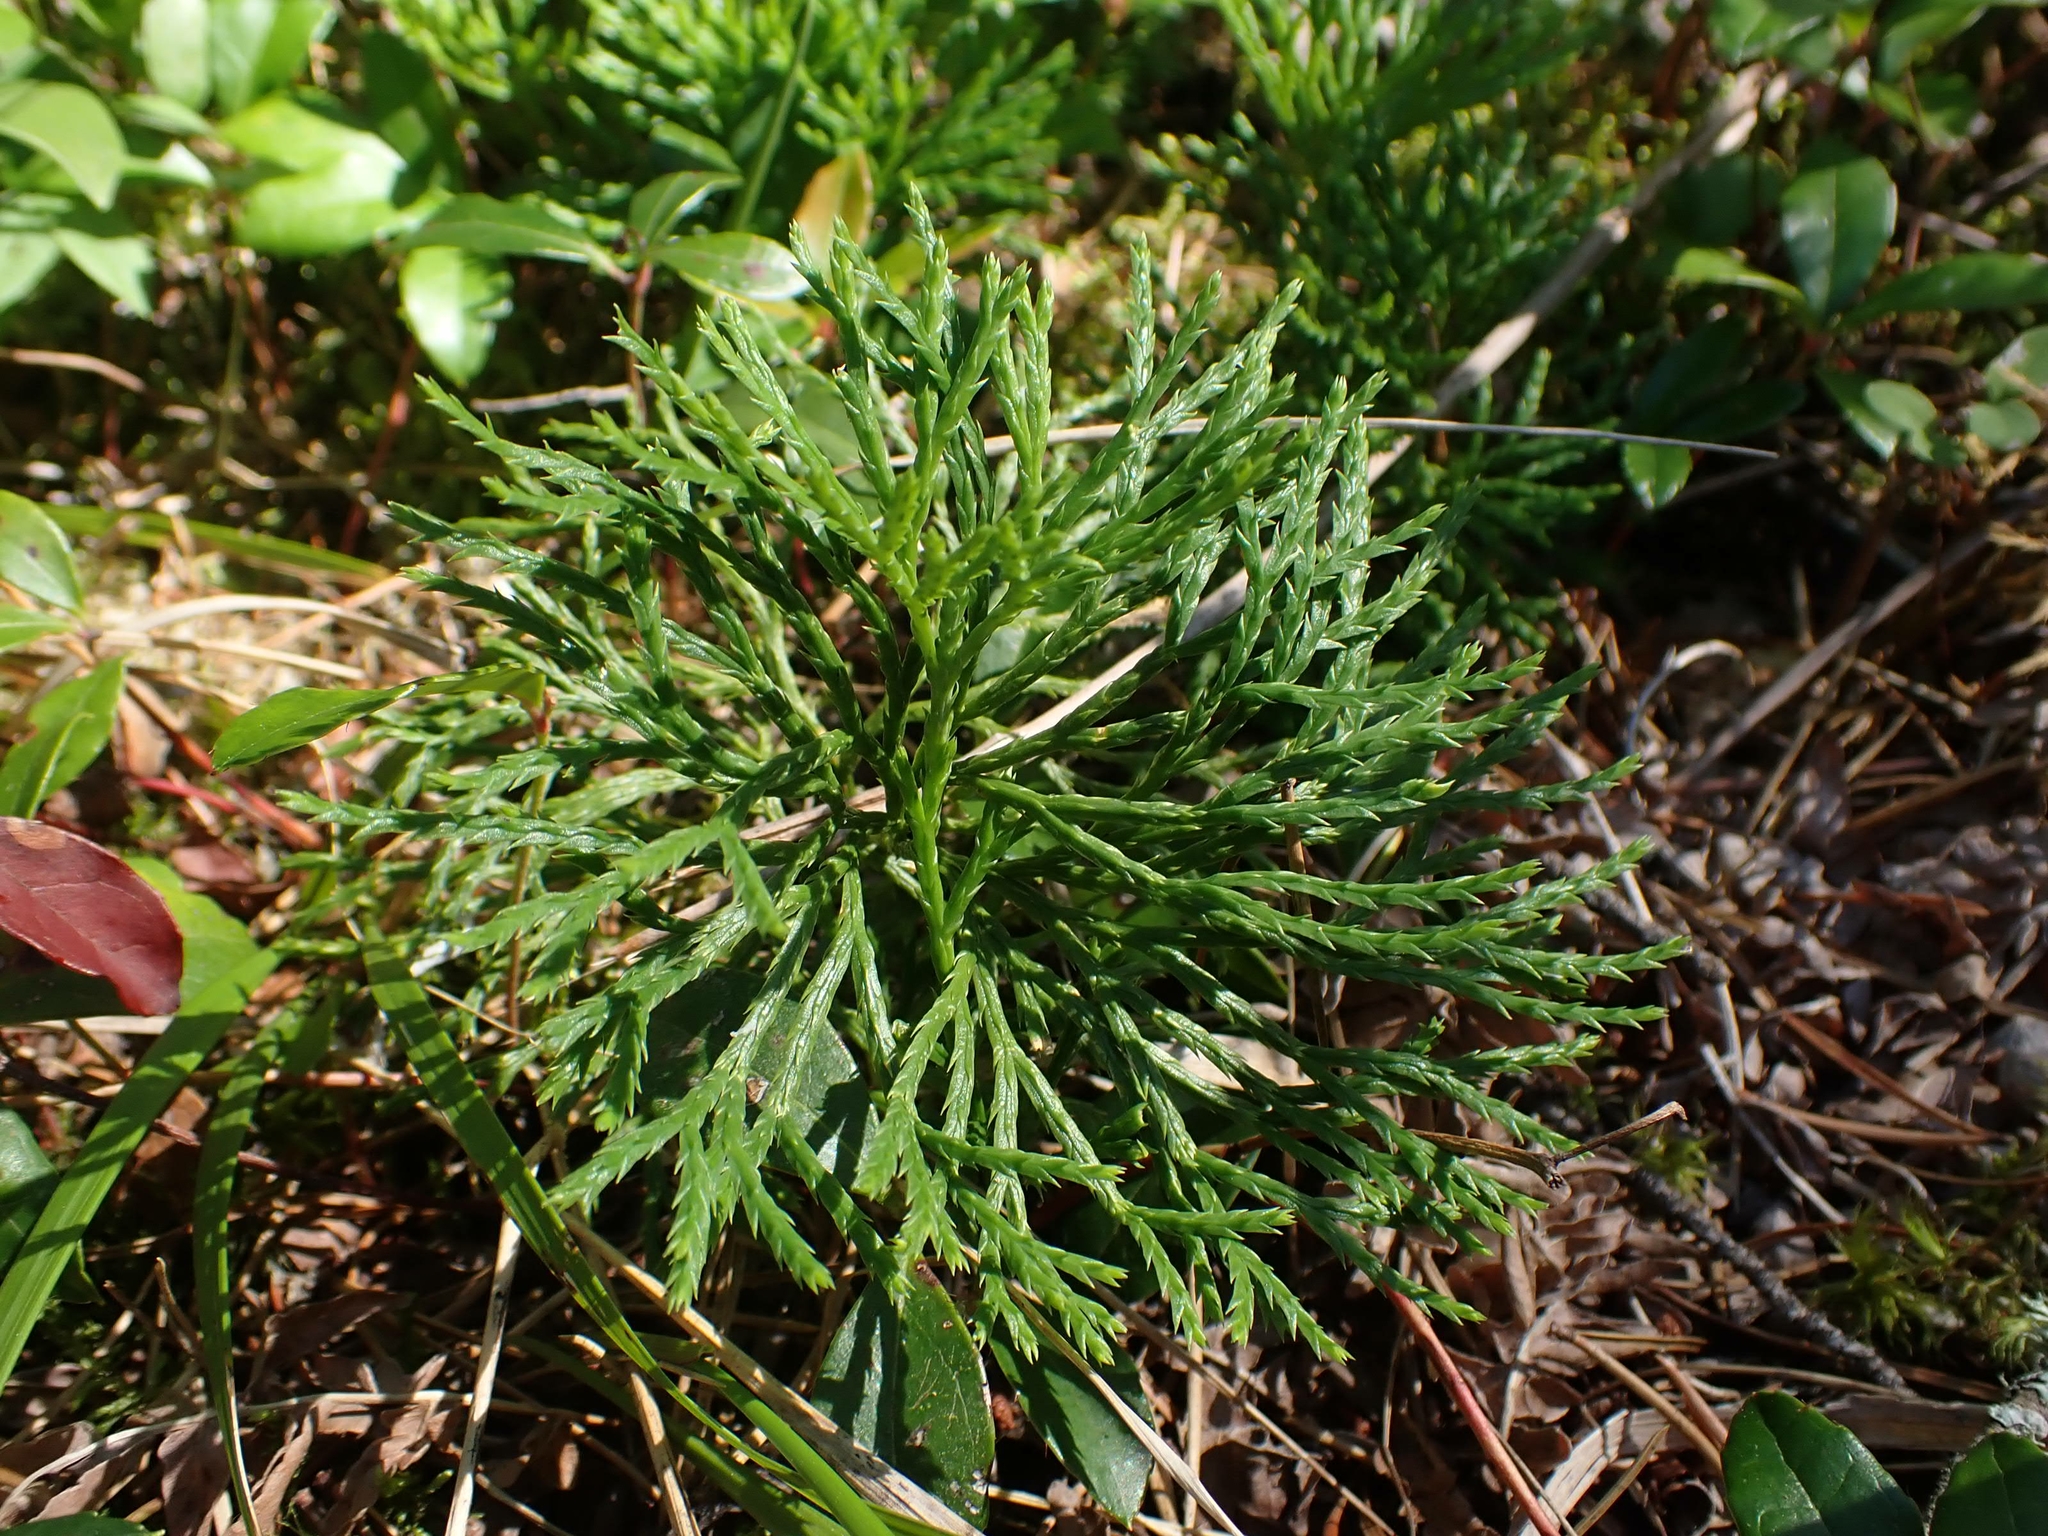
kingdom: Plantae
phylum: Tracheophyta
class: Lycopodiopsida
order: Lycopodiales
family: Lycopodiaceae
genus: Diphasiastrum
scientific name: Diphasiastrum complanatum
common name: Northern running-pine
